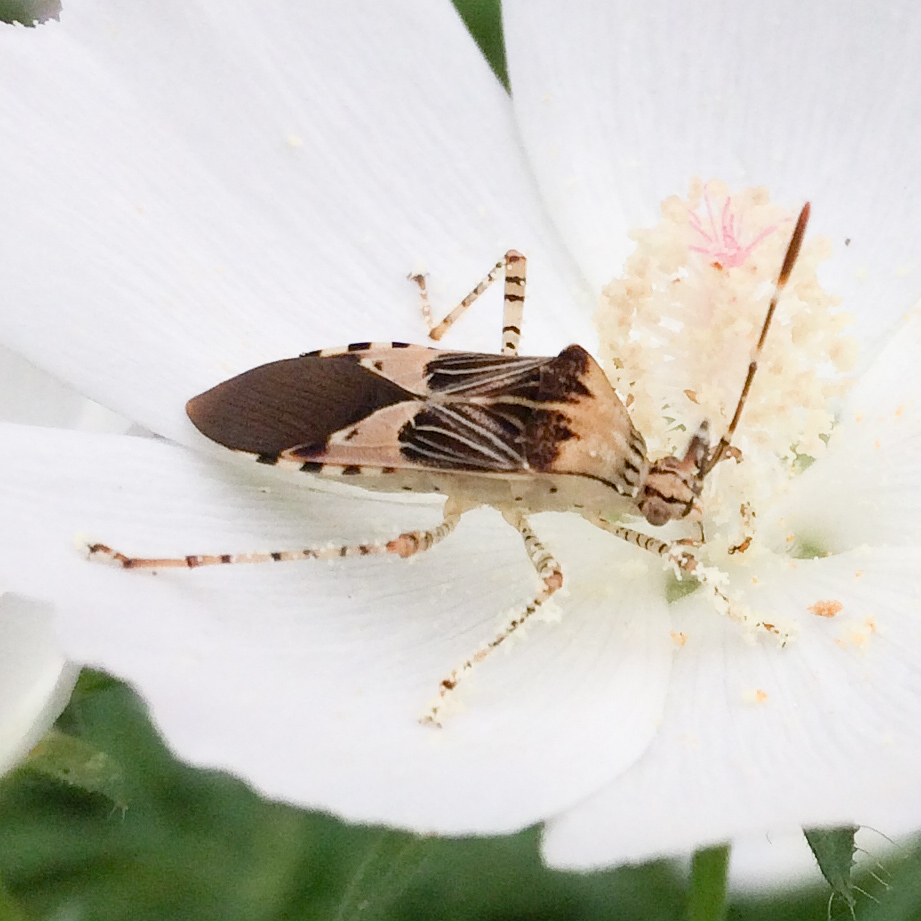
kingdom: Animalia
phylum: Arthropoda
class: Insecta
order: Hemiptera
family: Coreidae
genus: Hypselonotus
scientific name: Hypselonotus punctiventris
